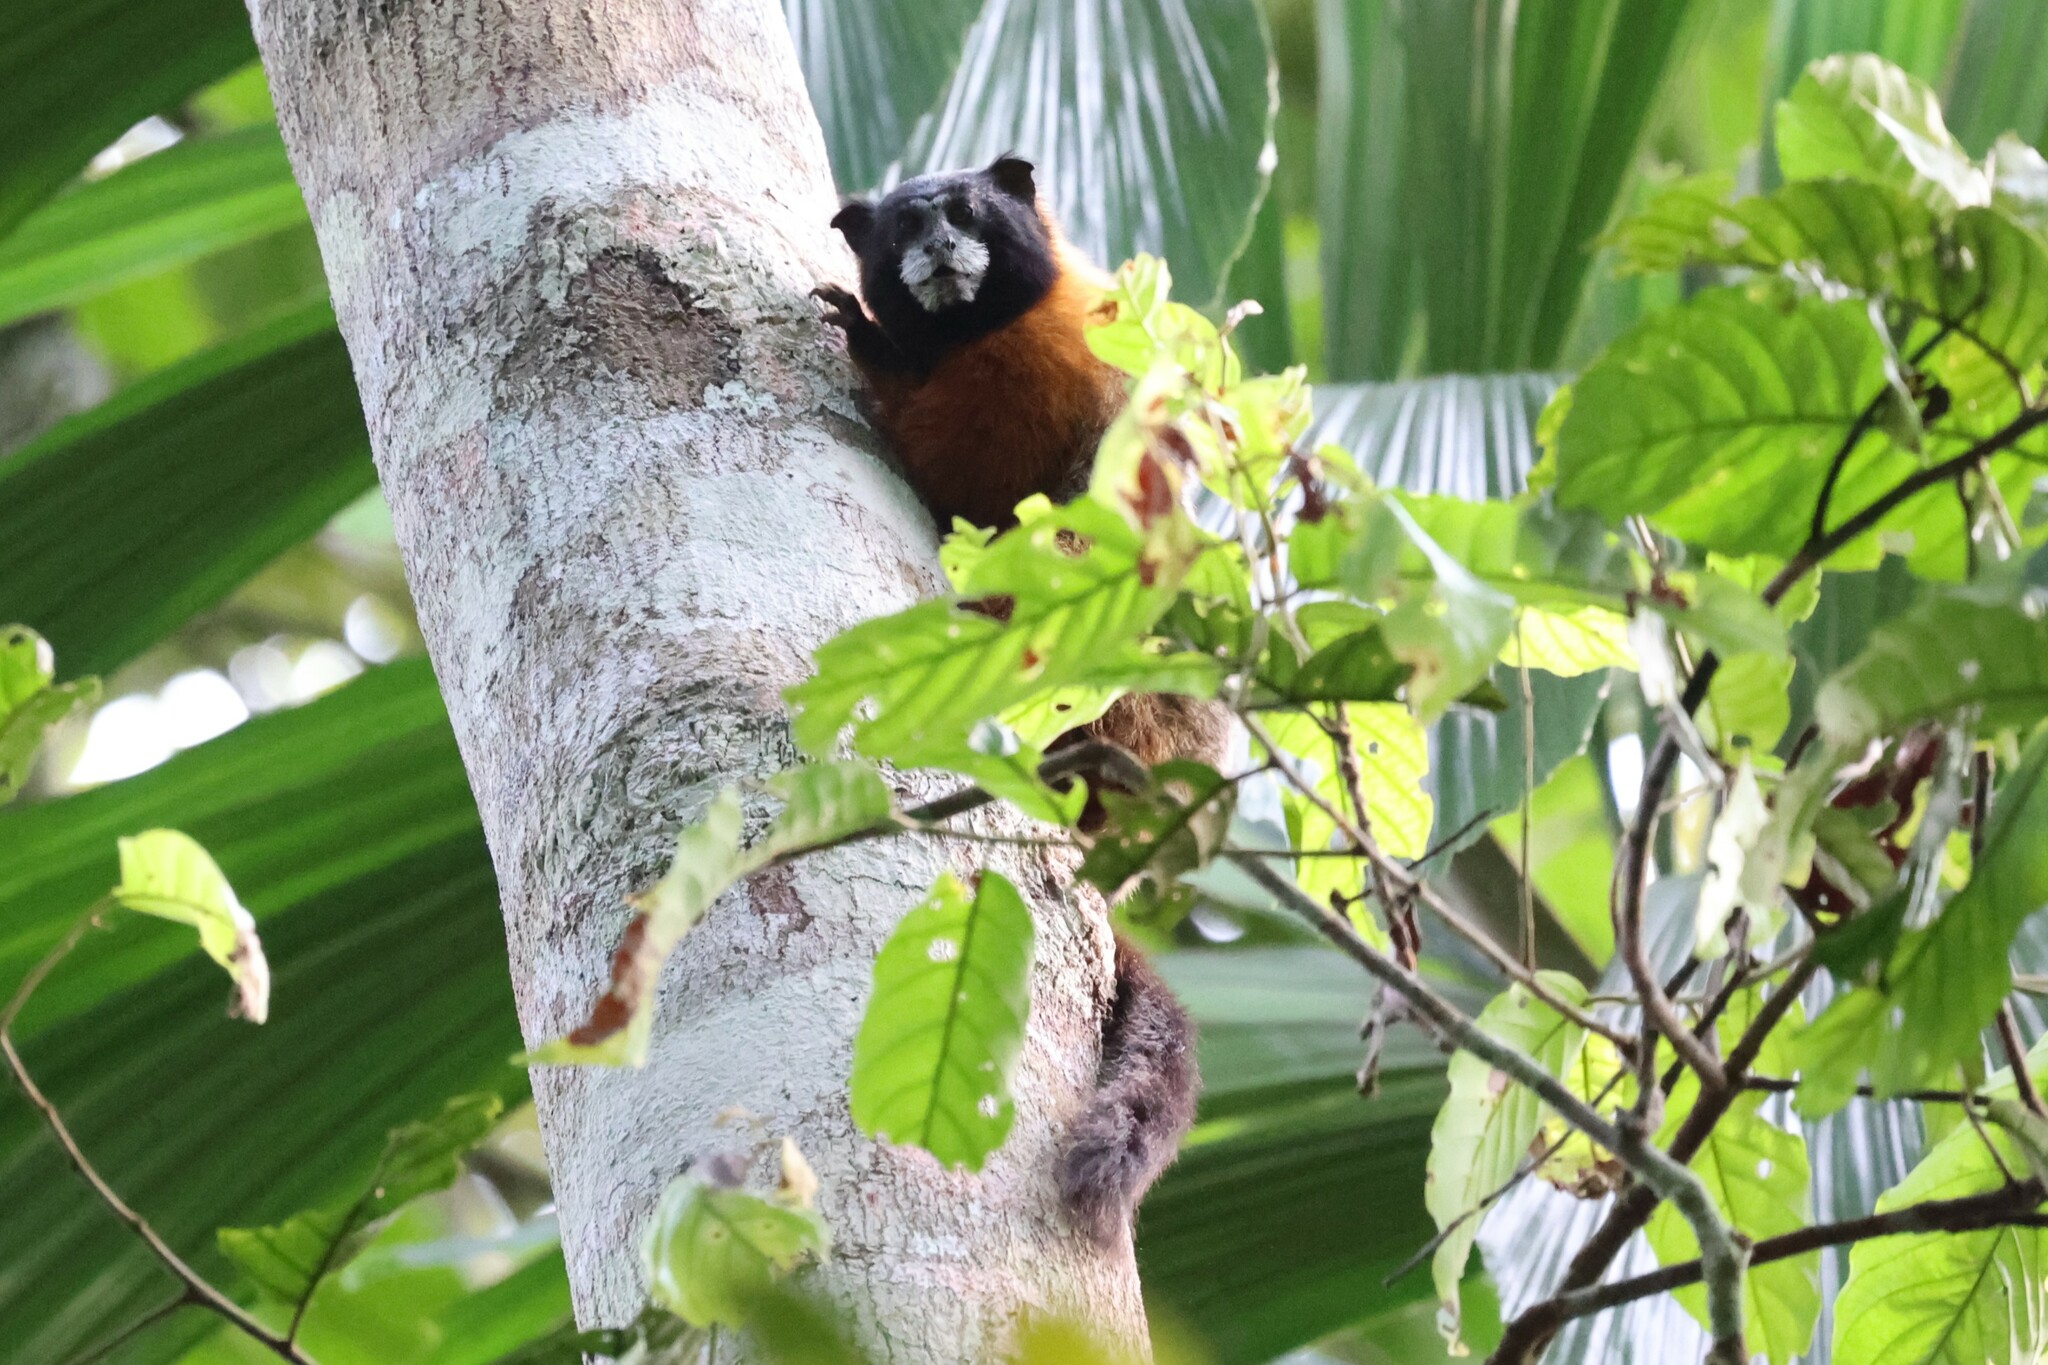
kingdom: Animalia
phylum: Chordata
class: Mammalia
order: Primates
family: Callitrichidae
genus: Leontocebus
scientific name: Leontocebus tripartitus
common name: Golden-mantled saddle-back tamarin
